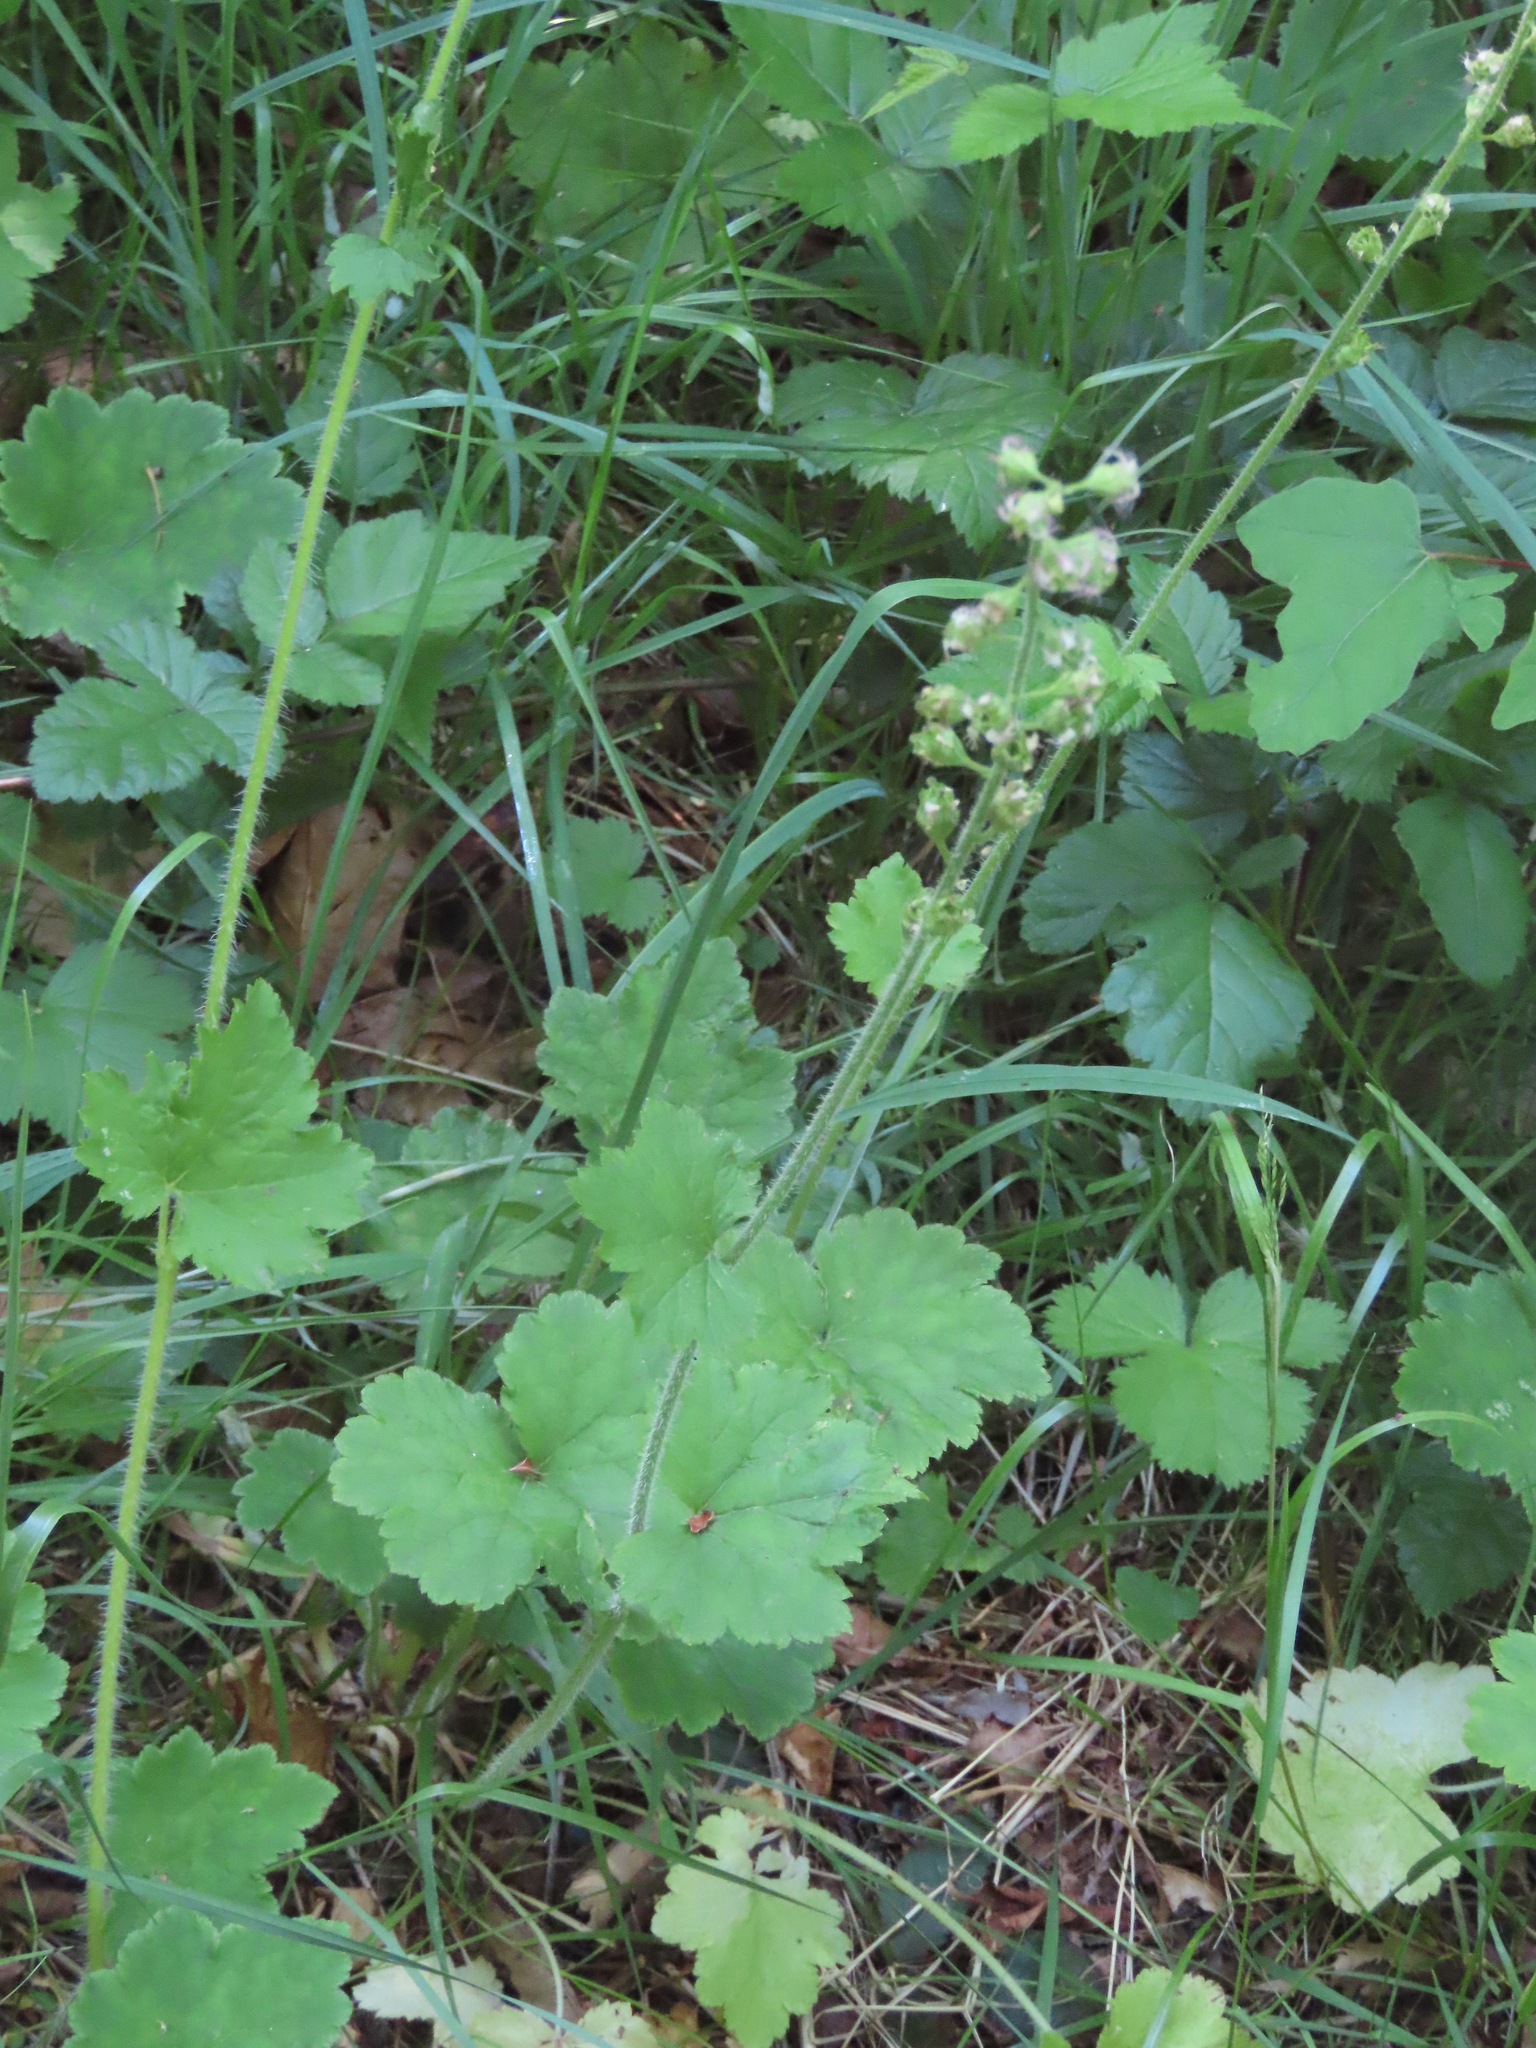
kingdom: Plantae
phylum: Tracheophyta
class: Magnoliopsida
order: Saxifragales
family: Saxifragaceae
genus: Tellima
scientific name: Tellima grandiflora
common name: Fringecups
